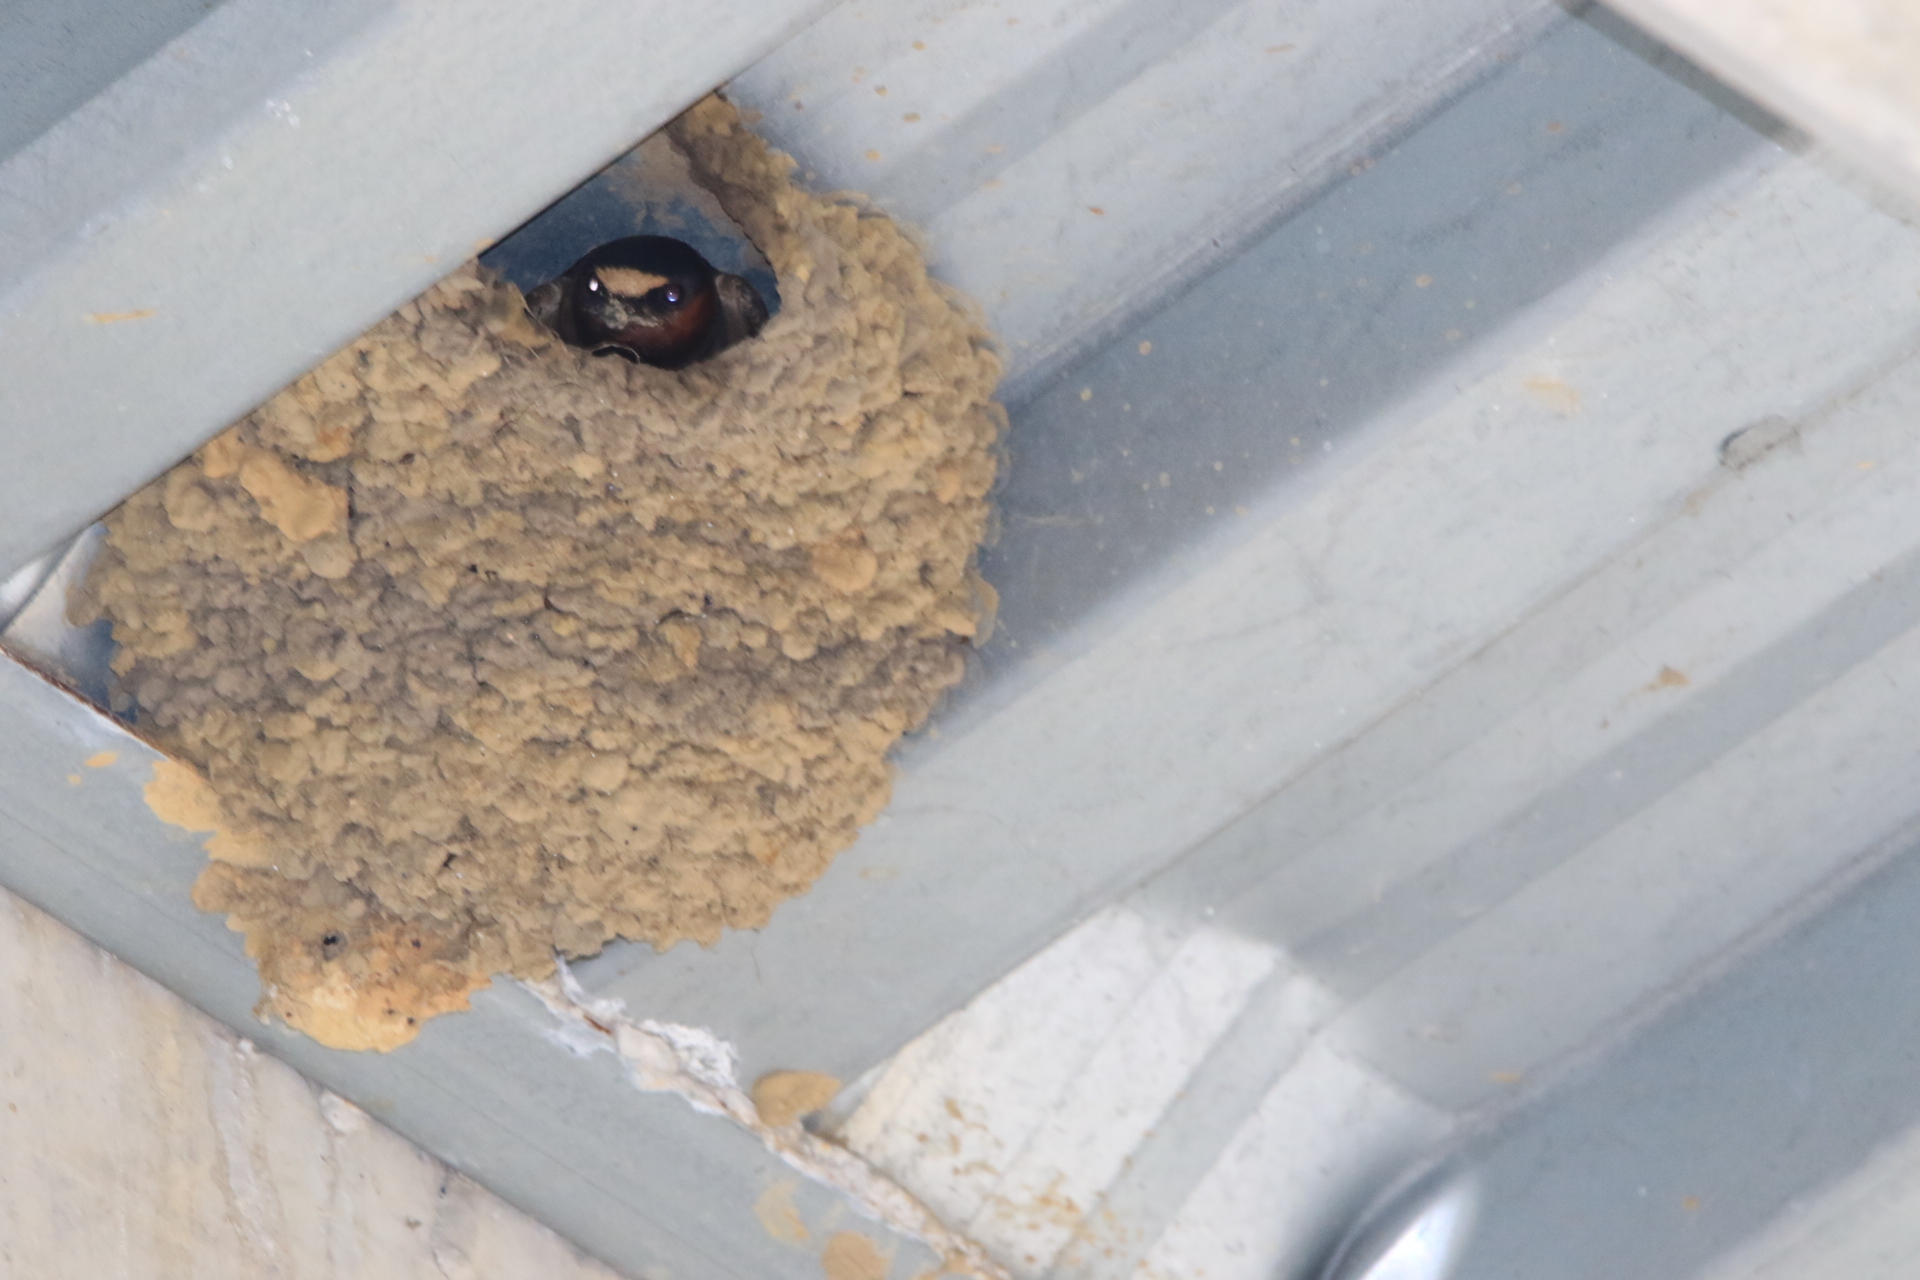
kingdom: Animalia
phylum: Chordata
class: Aves
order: Passeriformes
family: Hirundinidae
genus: Petrochelidon
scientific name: Petrochelidon pyrrhonota
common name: American cliff swallow
